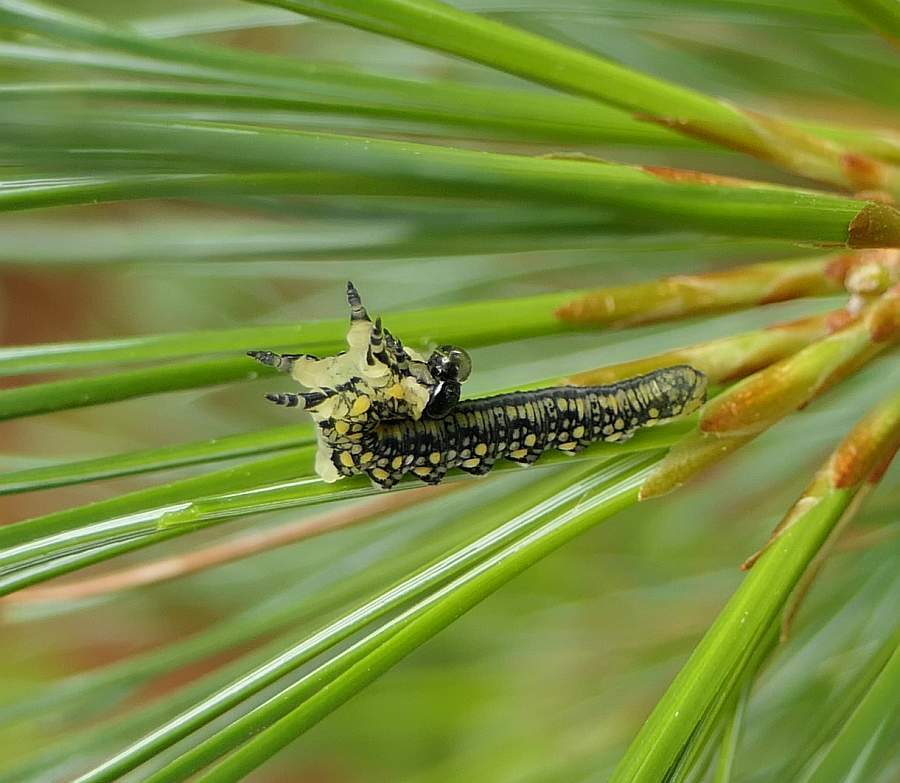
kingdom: Animalia
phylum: Arthropoda
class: Insecta
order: Hymenoptera
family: Diprionidae
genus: Diprion
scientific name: Diprion similis
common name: Pine sawfly
